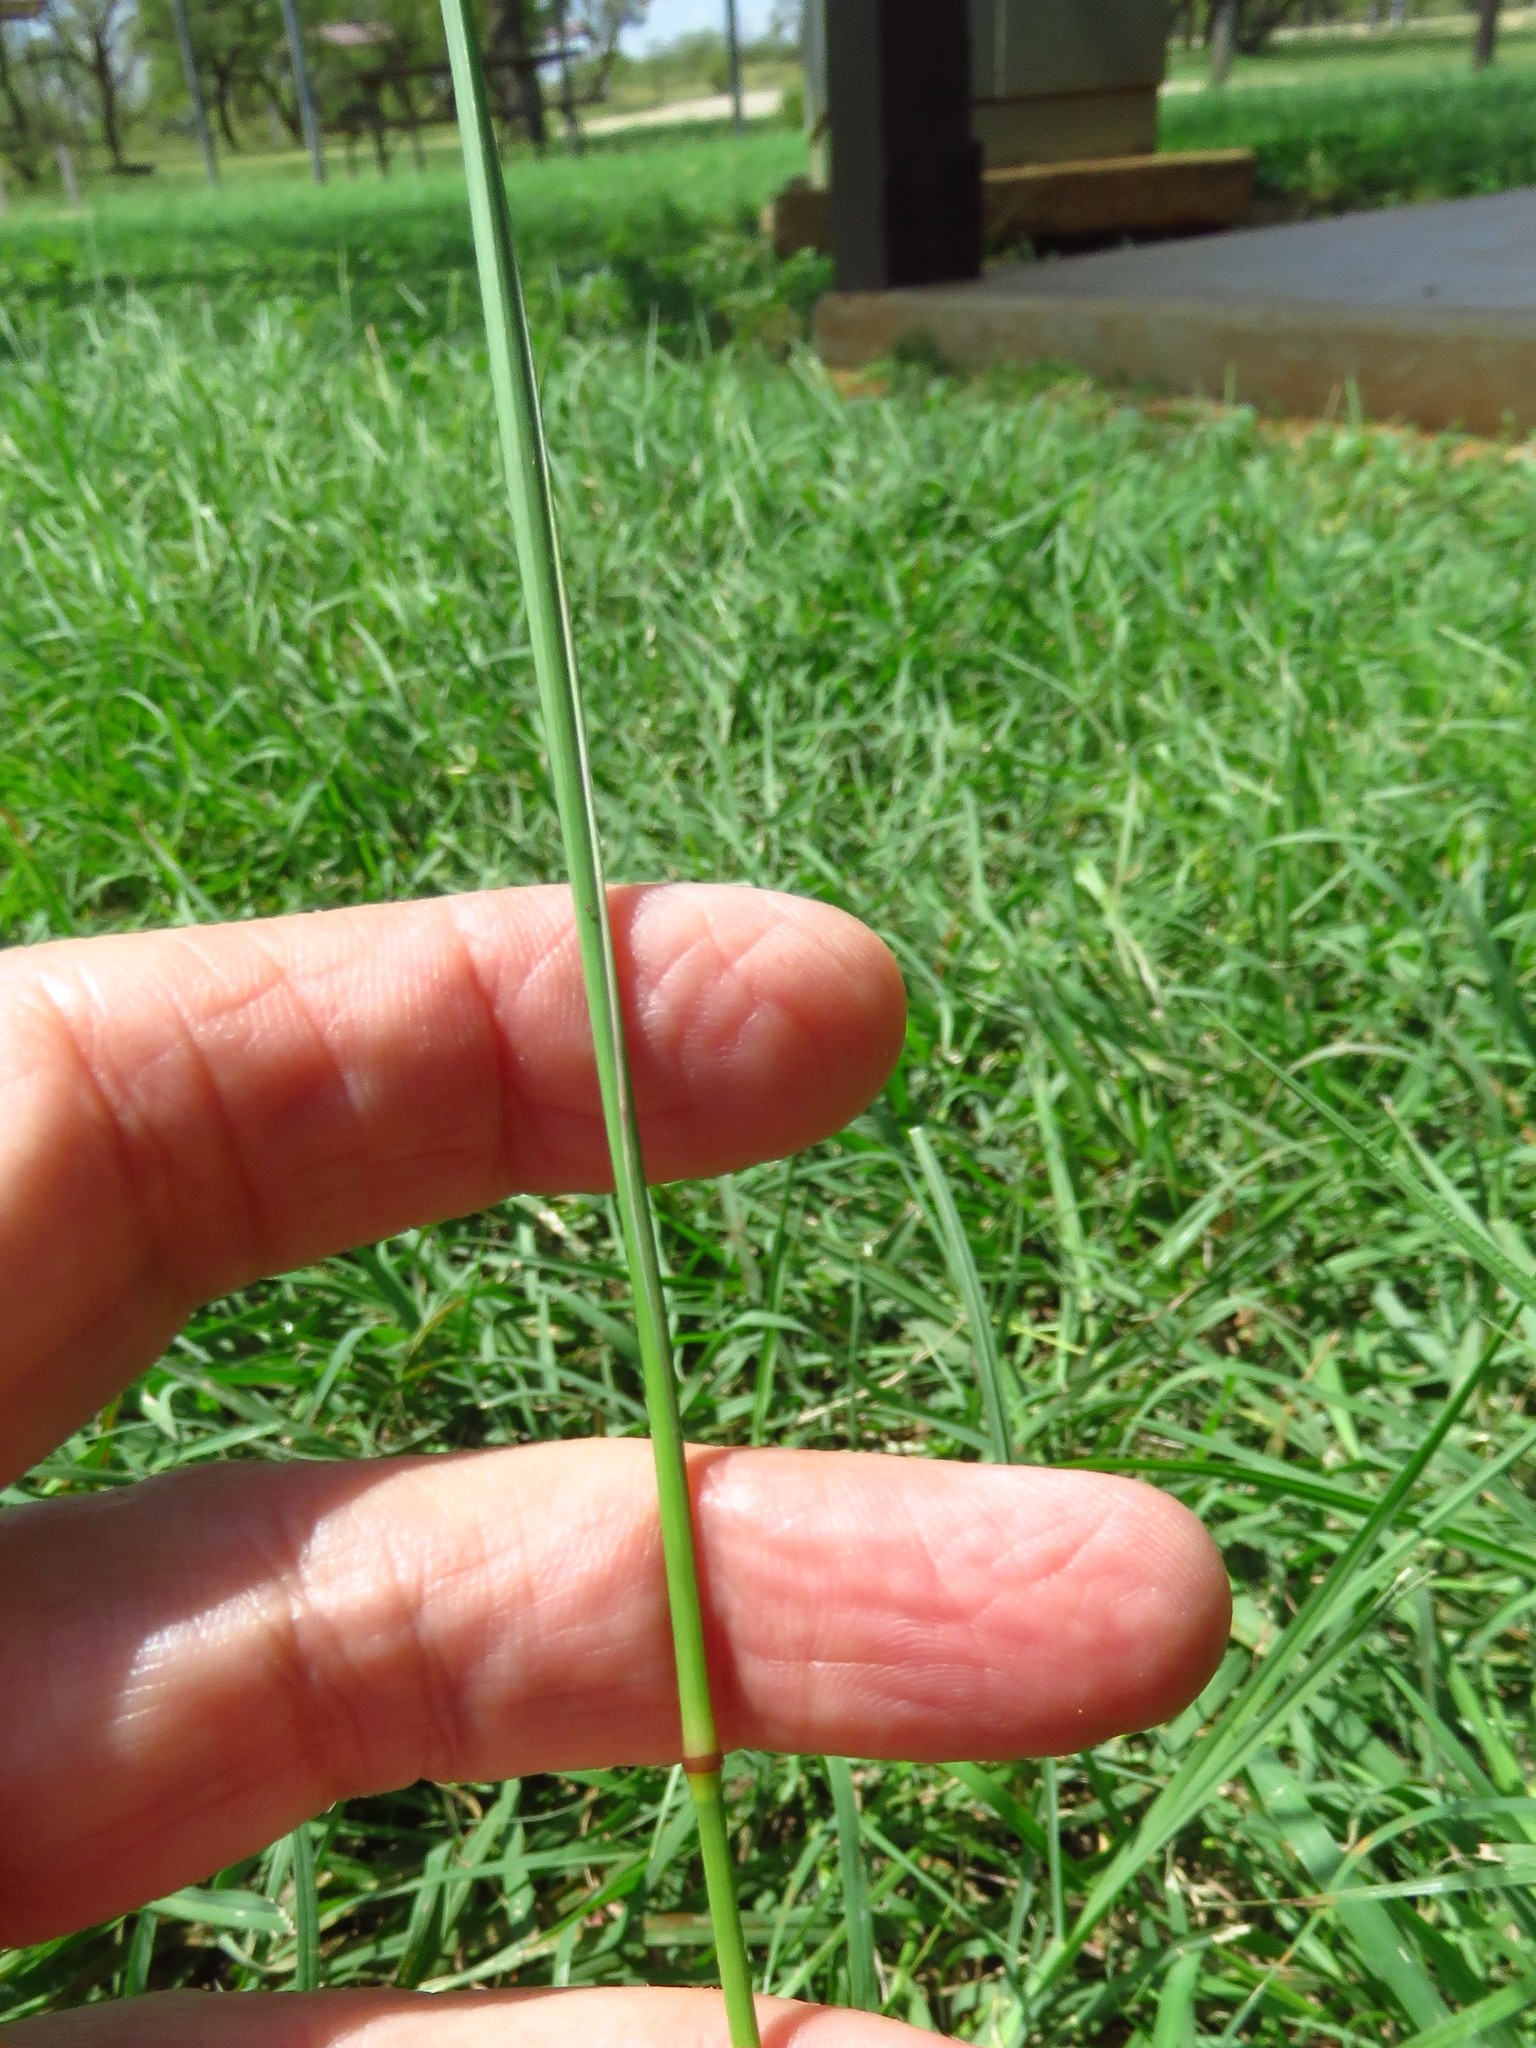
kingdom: Plantae
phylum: Tracheophyta
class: Liliopsida
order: Poales
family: Poaceae
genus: Chloris
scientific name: Chloris cucullata
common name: Hooded windmill grass
